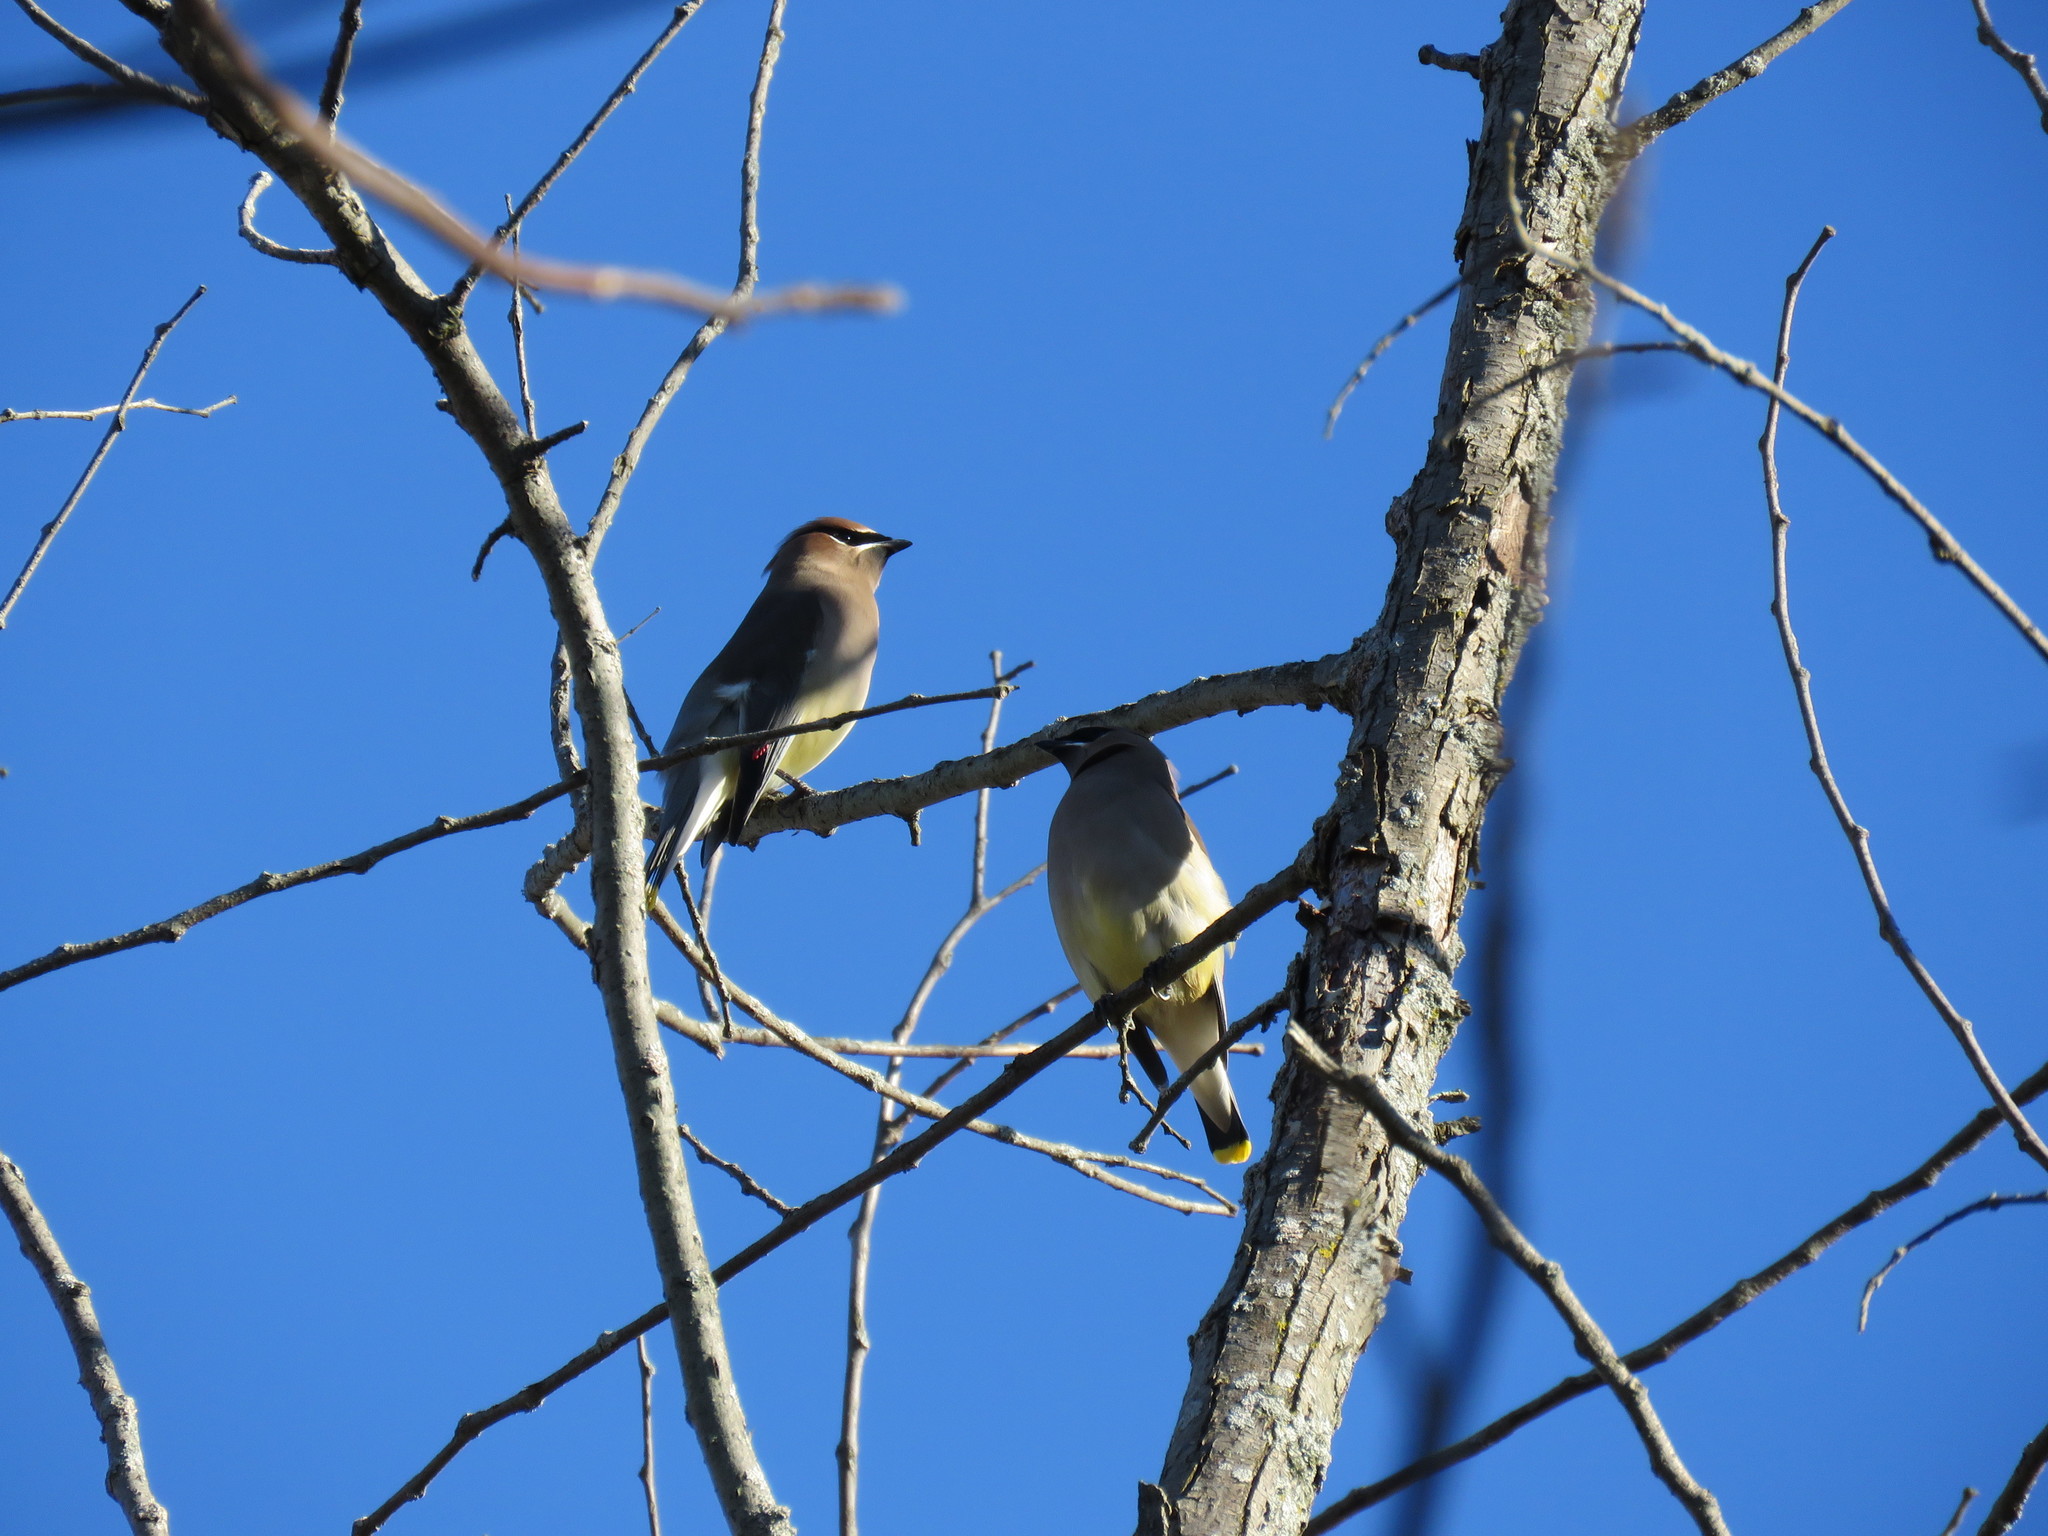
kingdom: Animalia
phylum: Chordata
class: Aves
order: Passeriformes
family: Bombycillidae
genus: Bombycilla
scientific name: Bombycilla cedrorum
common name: Cedar waxwing
